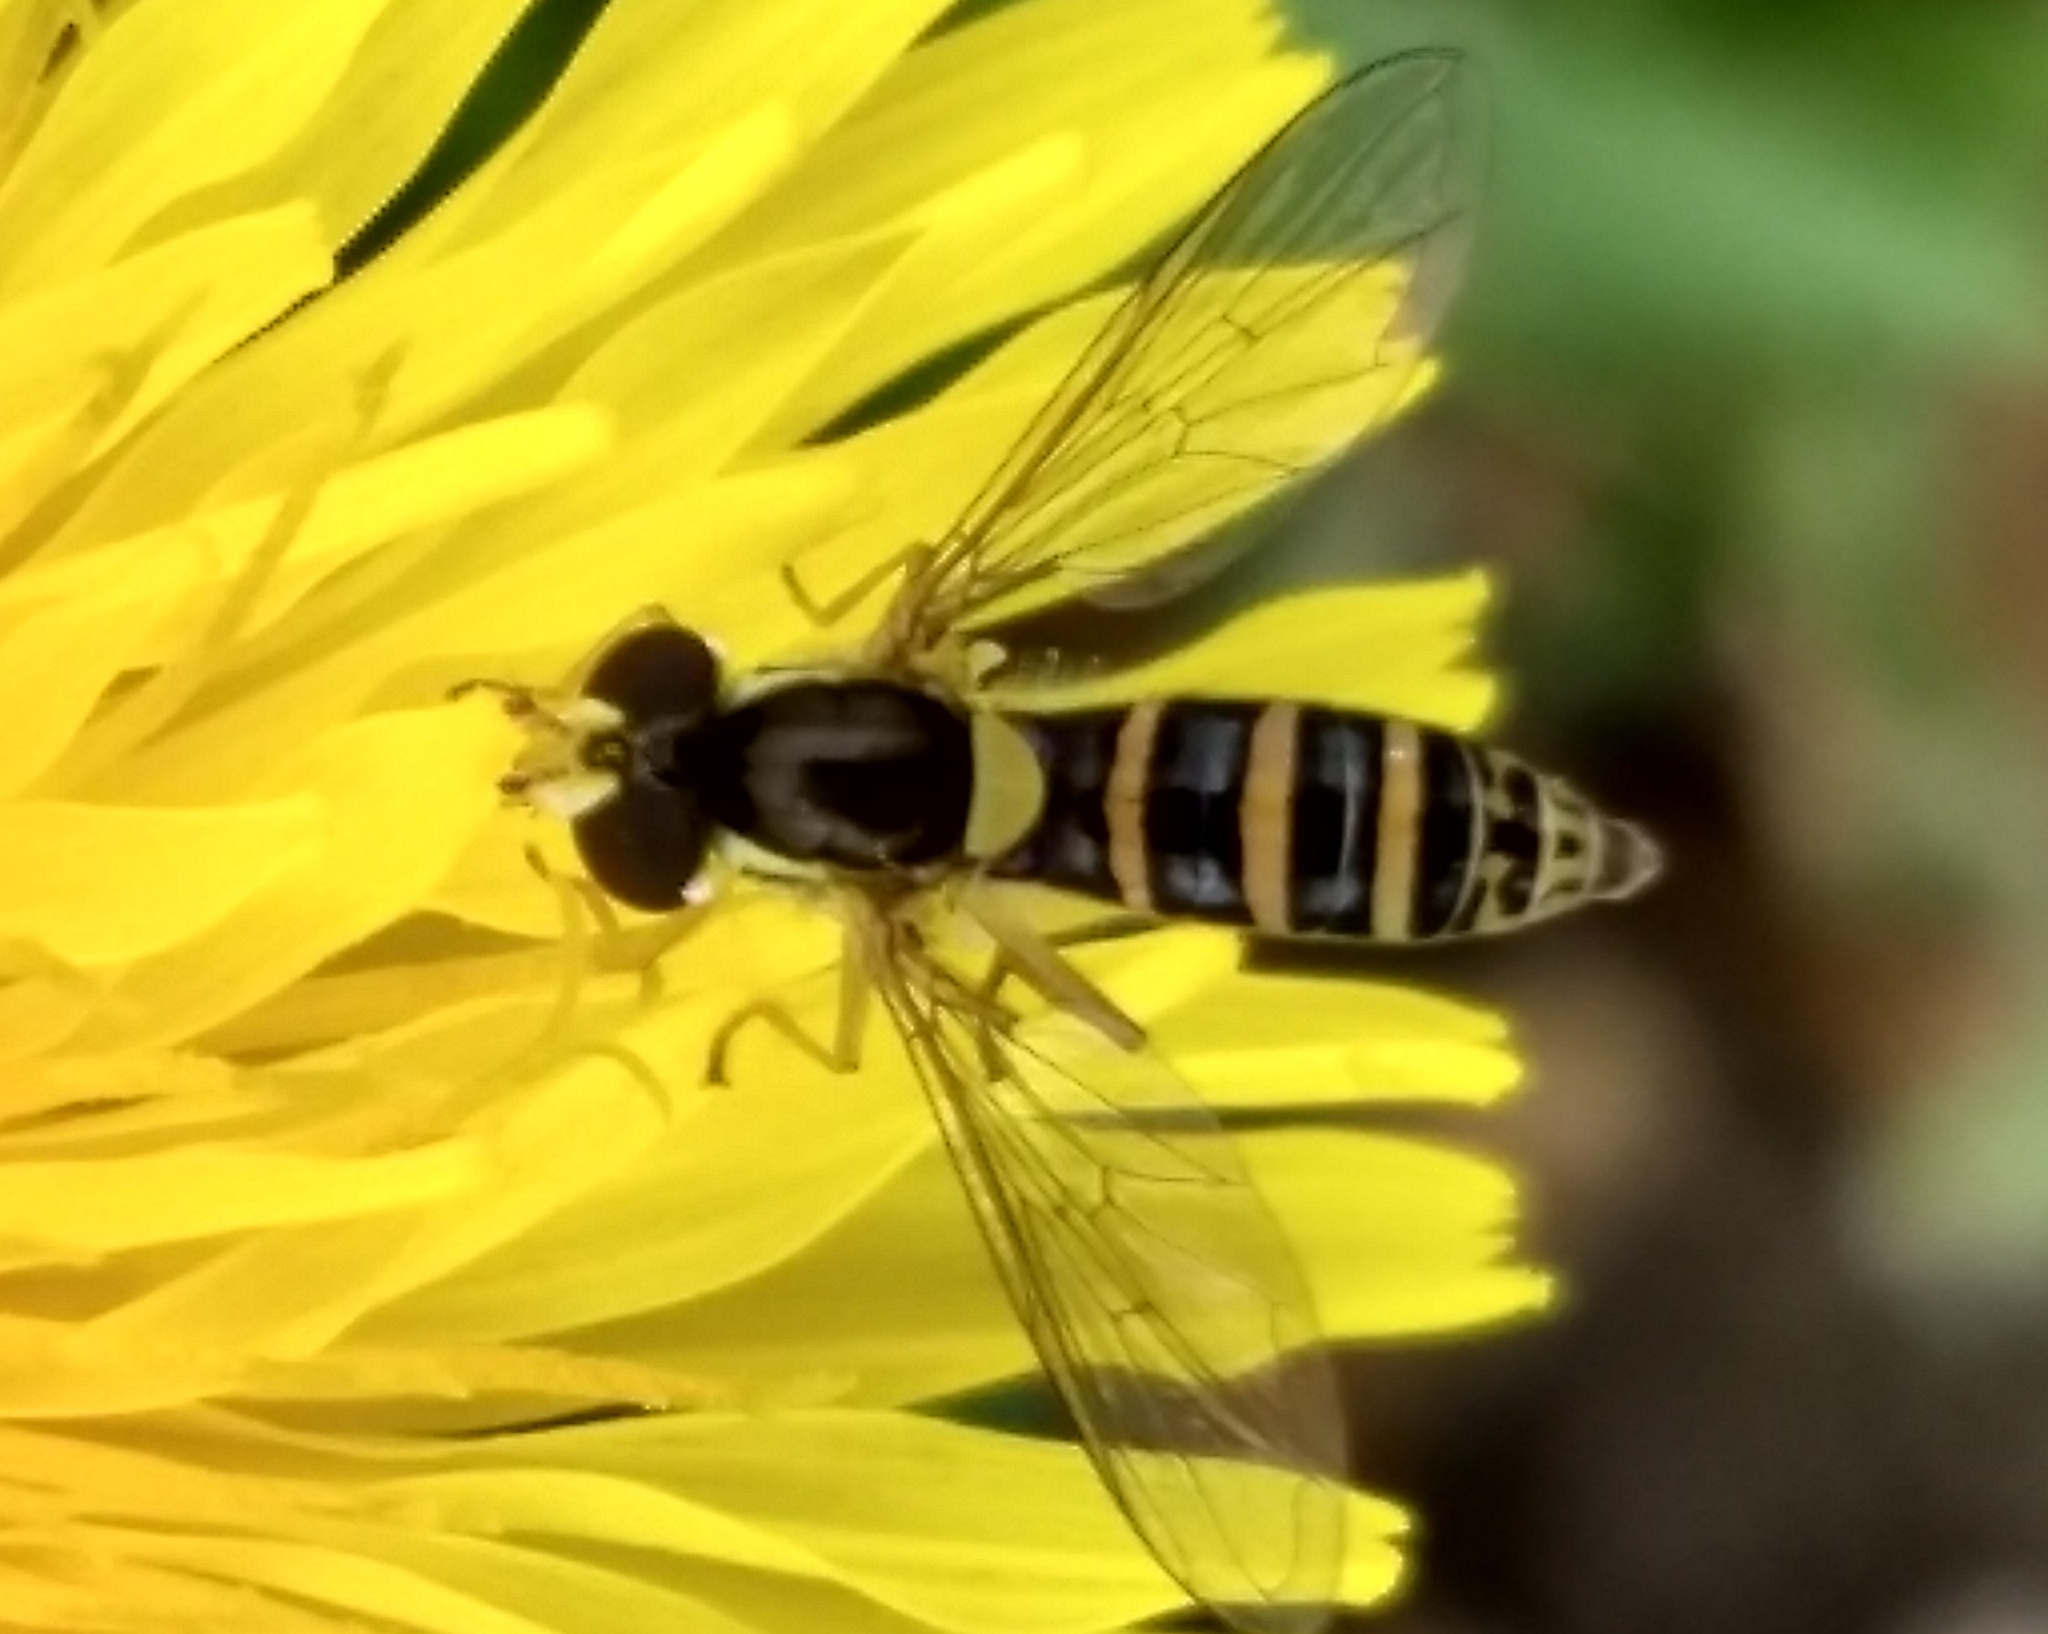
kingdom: Animalia
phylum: Arthropoda
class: Insecta
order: Diptera
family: Syrphidae
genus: Sphaerophoria
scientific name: Sphaerophoria
